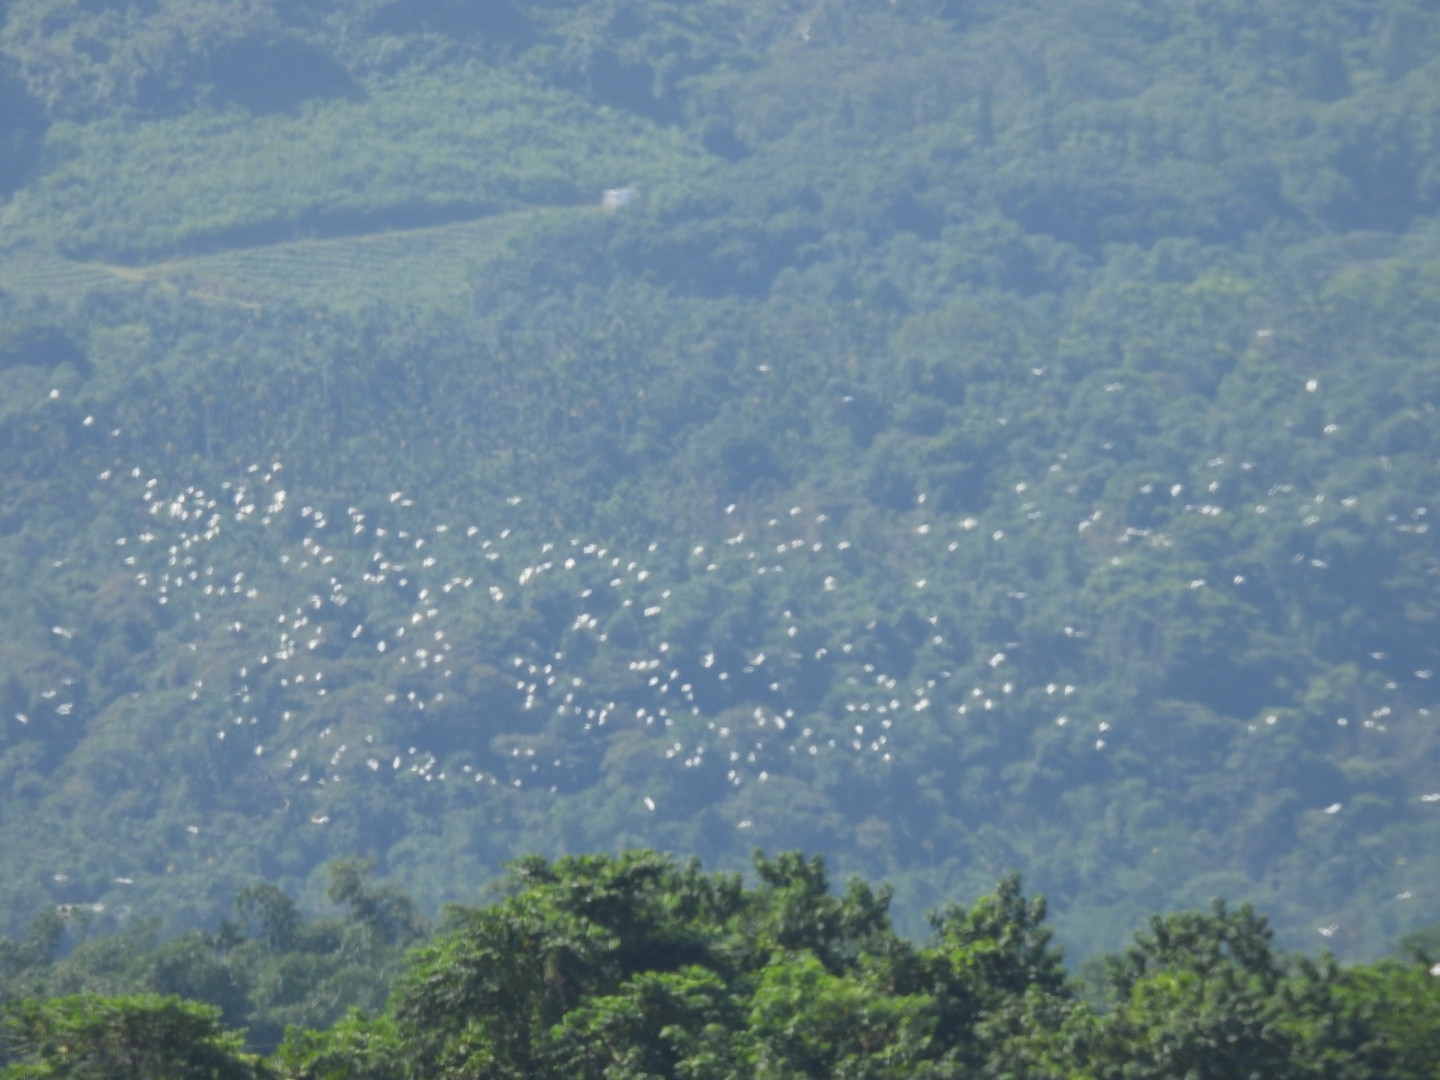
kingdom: Animalia
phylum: Chordata
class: Aves
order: Pelecaniformes
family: Ardeidae
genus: Bubulcus
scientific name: Bubulcus coromandus
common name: Eastern cattle egret
